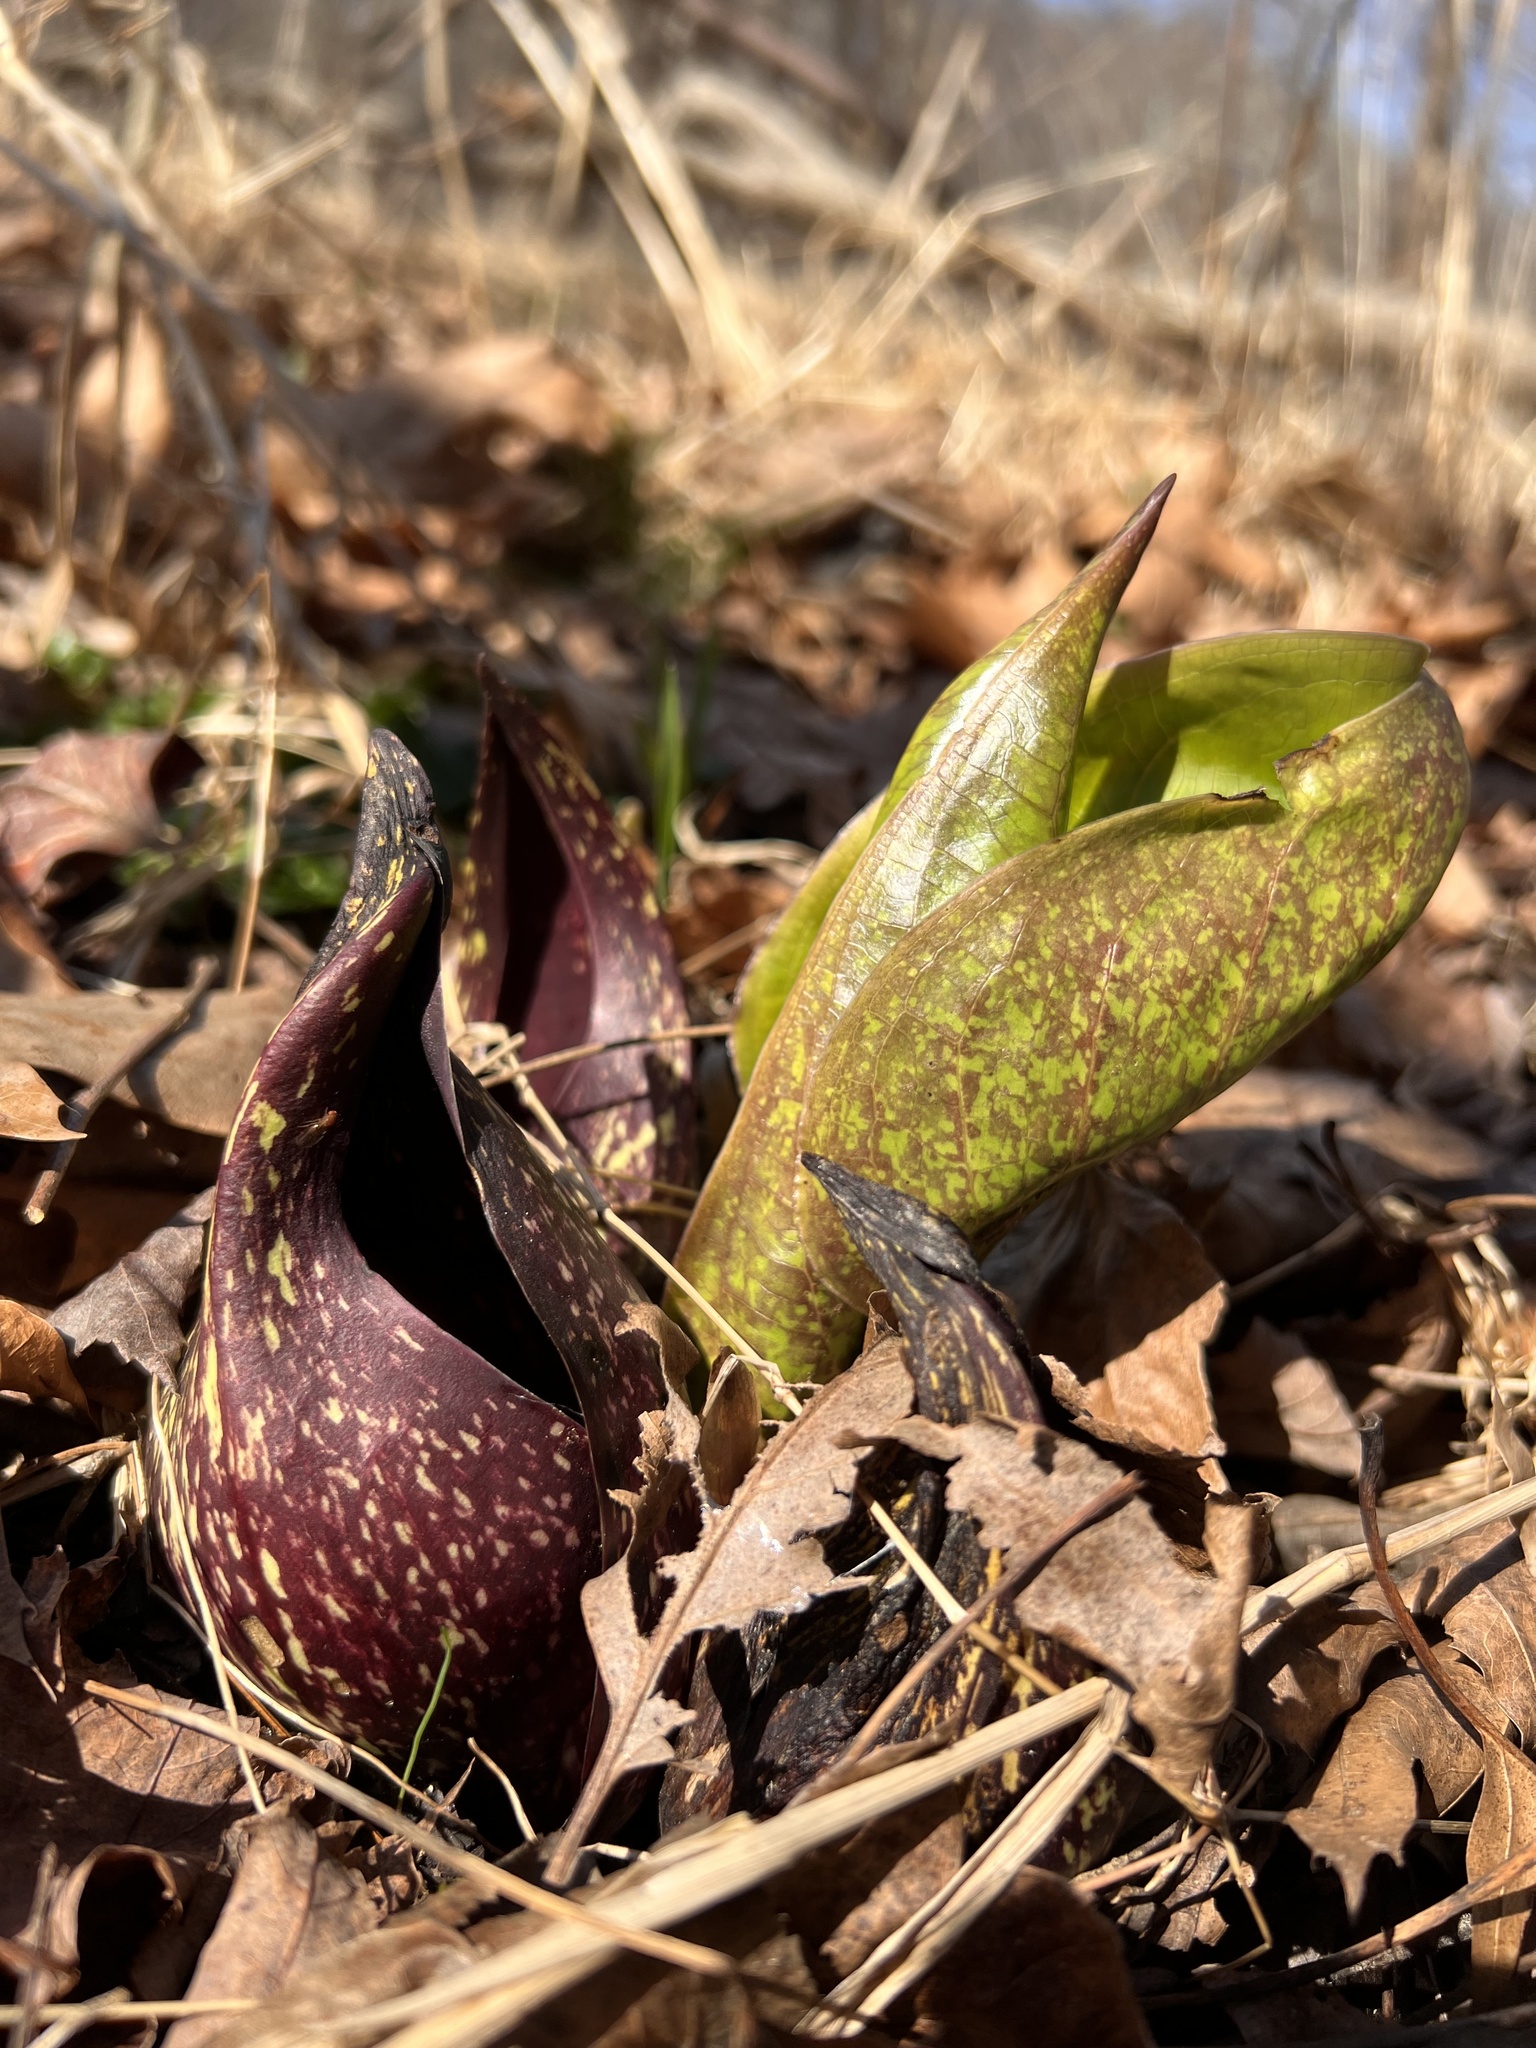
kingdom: Plantae
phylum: Tracheophyta
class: Liliopsida
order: Alismatales
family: Araceae
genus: Symplocarpus
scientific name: Symplocarpus foetidus
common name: Eastern skunk cabbage
